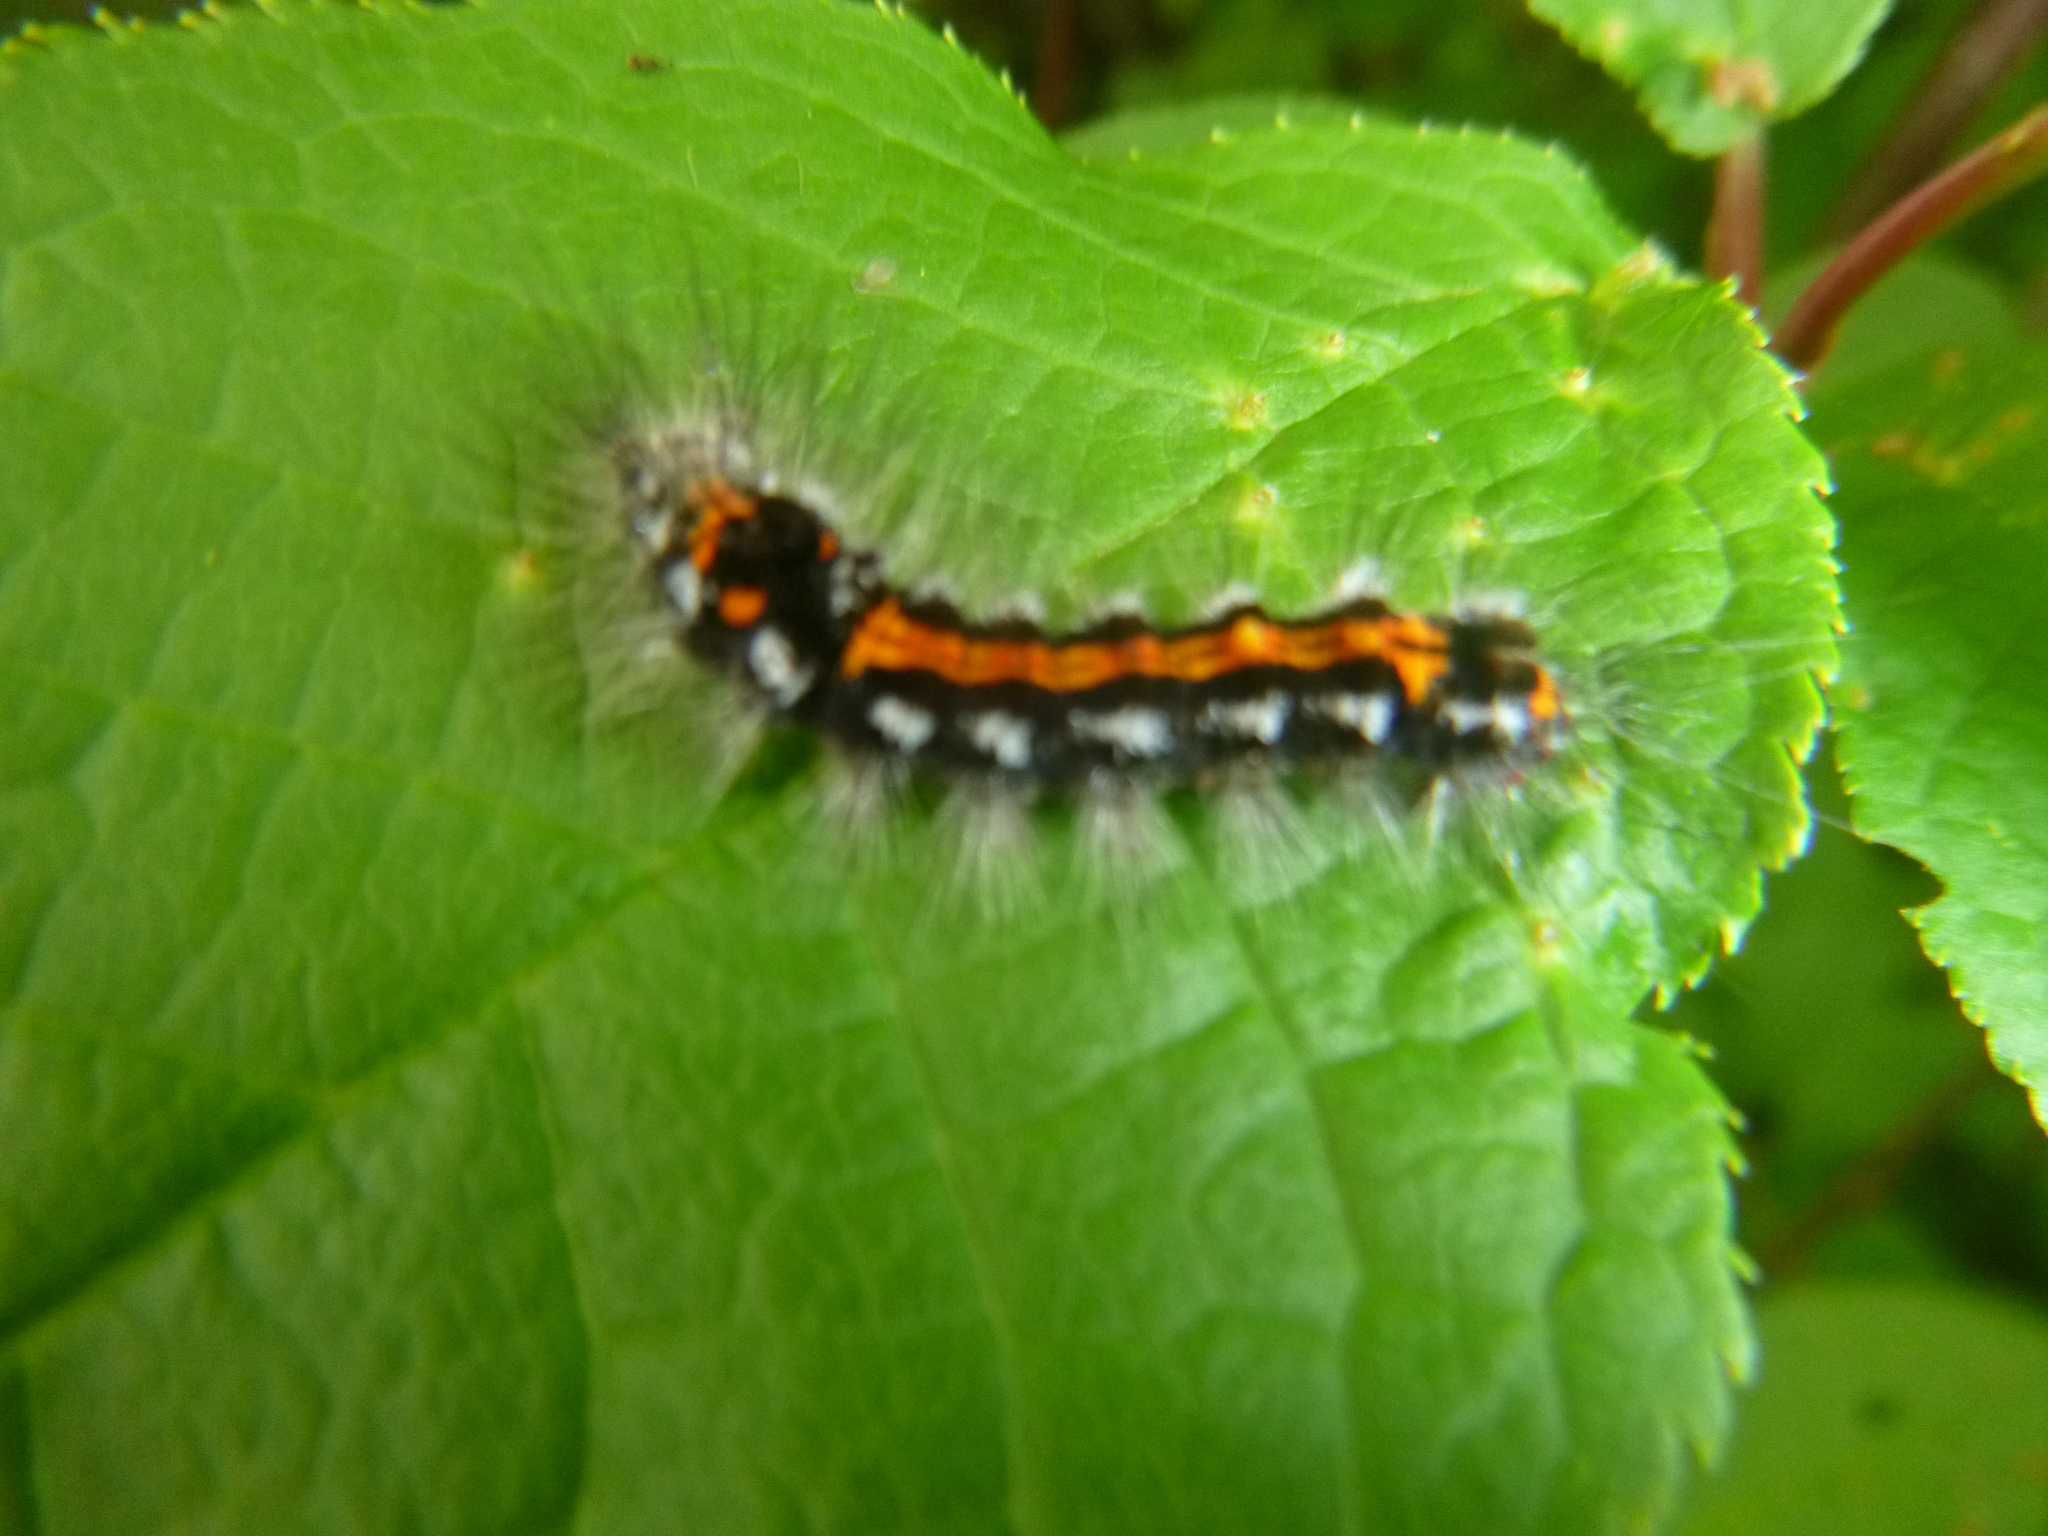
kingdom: Animalia
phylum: Arthropoda
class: Insecta
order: Lepidoptera
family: Erebidae
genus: Sphrageidus
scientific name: Sphrageidus similis
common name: Yellow-tail
